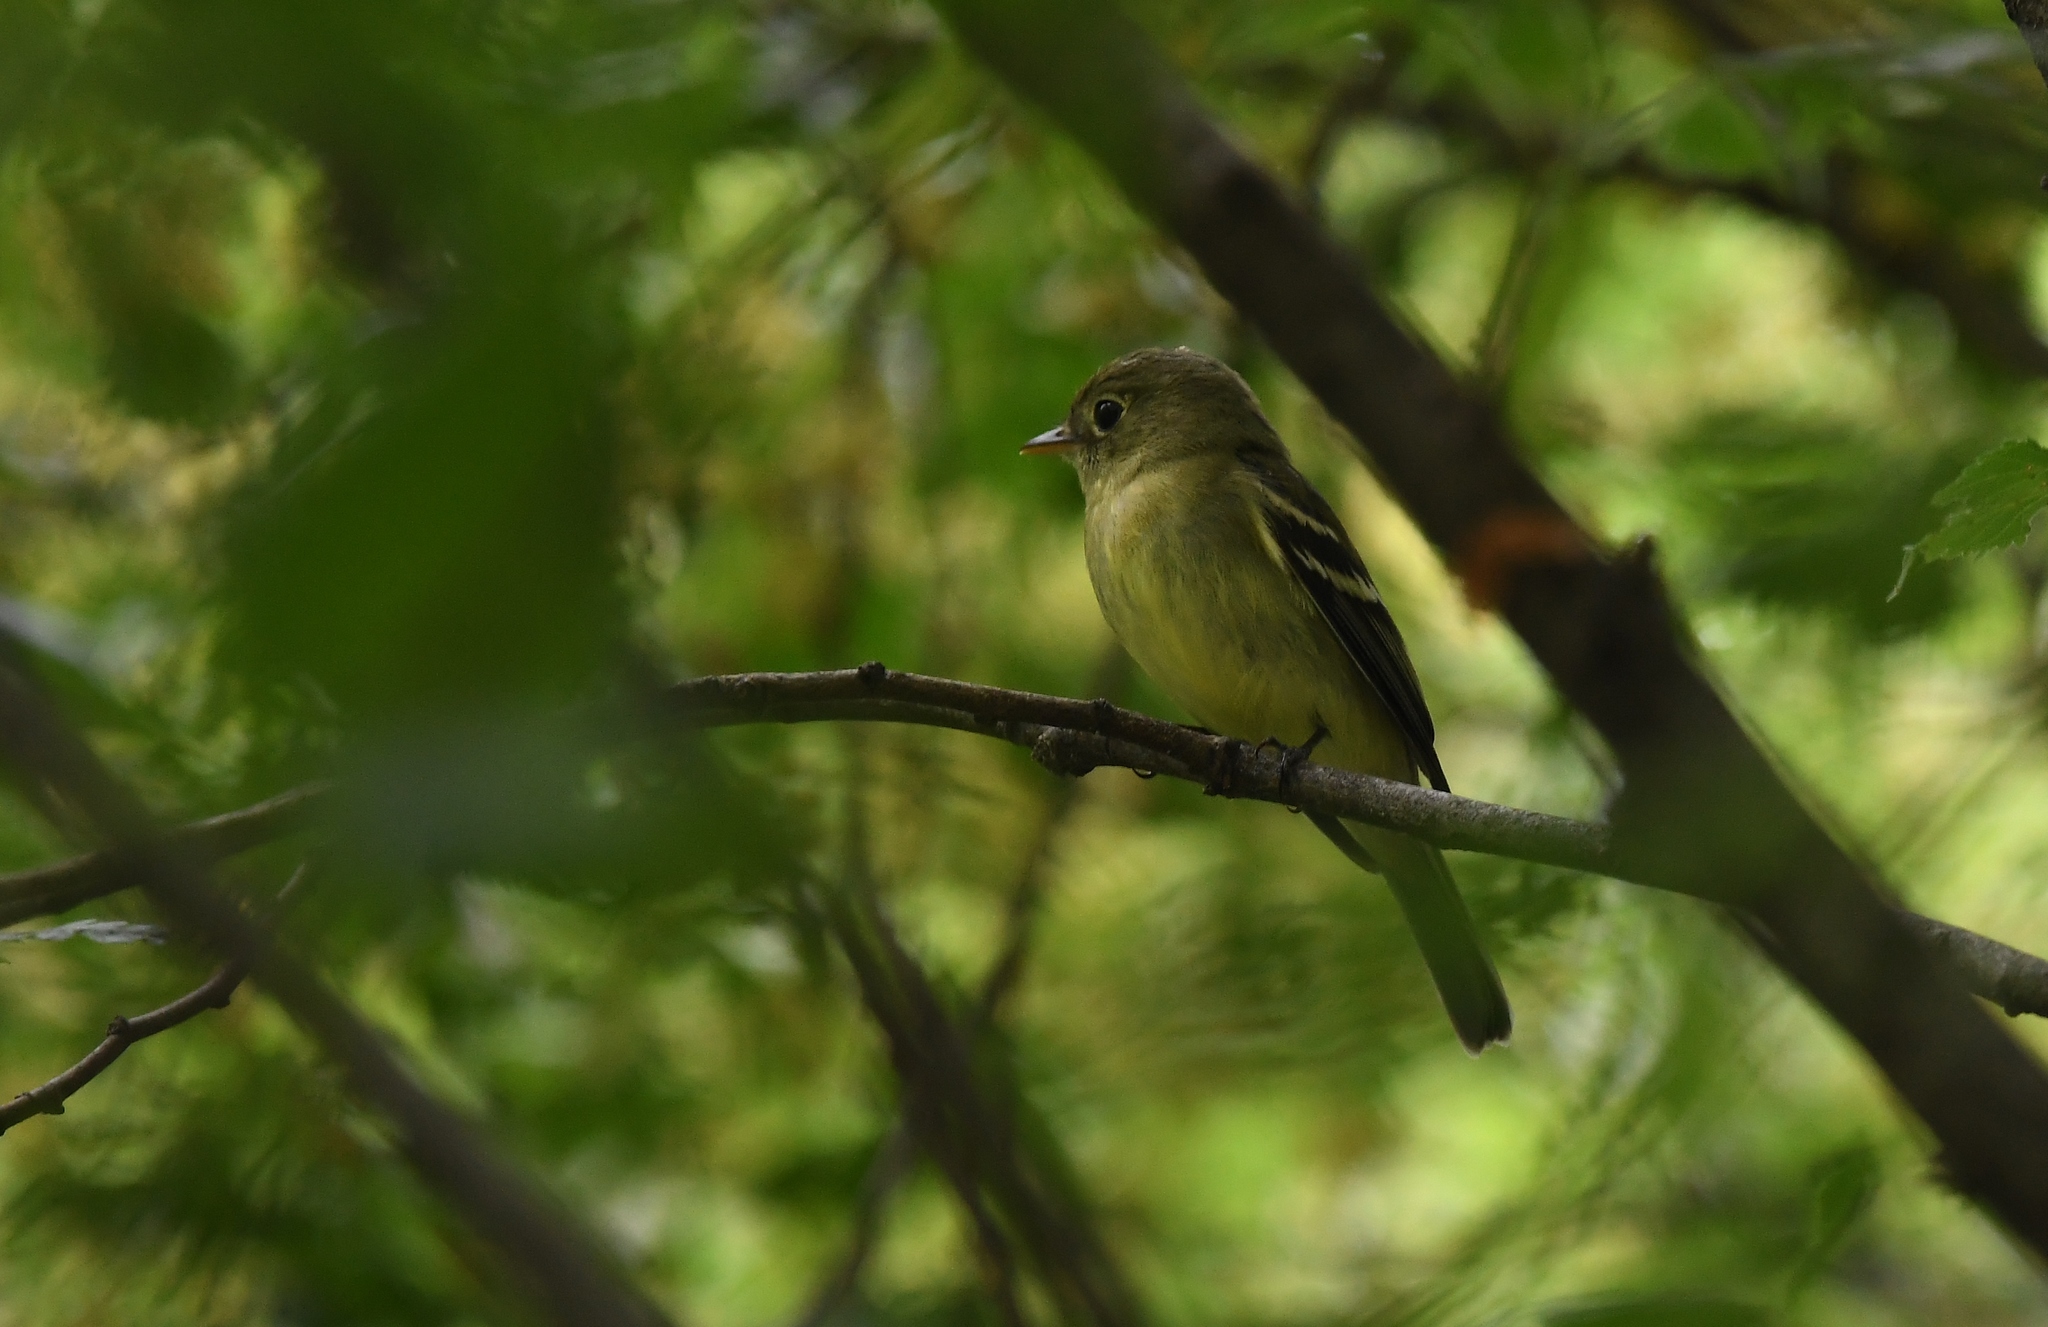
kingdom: Animalia
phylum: Chordata
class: Aves
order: Passeriformes
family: Tyrannidae
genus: Empidonax
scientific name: Empidonax flaviventris
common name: Yellow-bellied flycatcher
